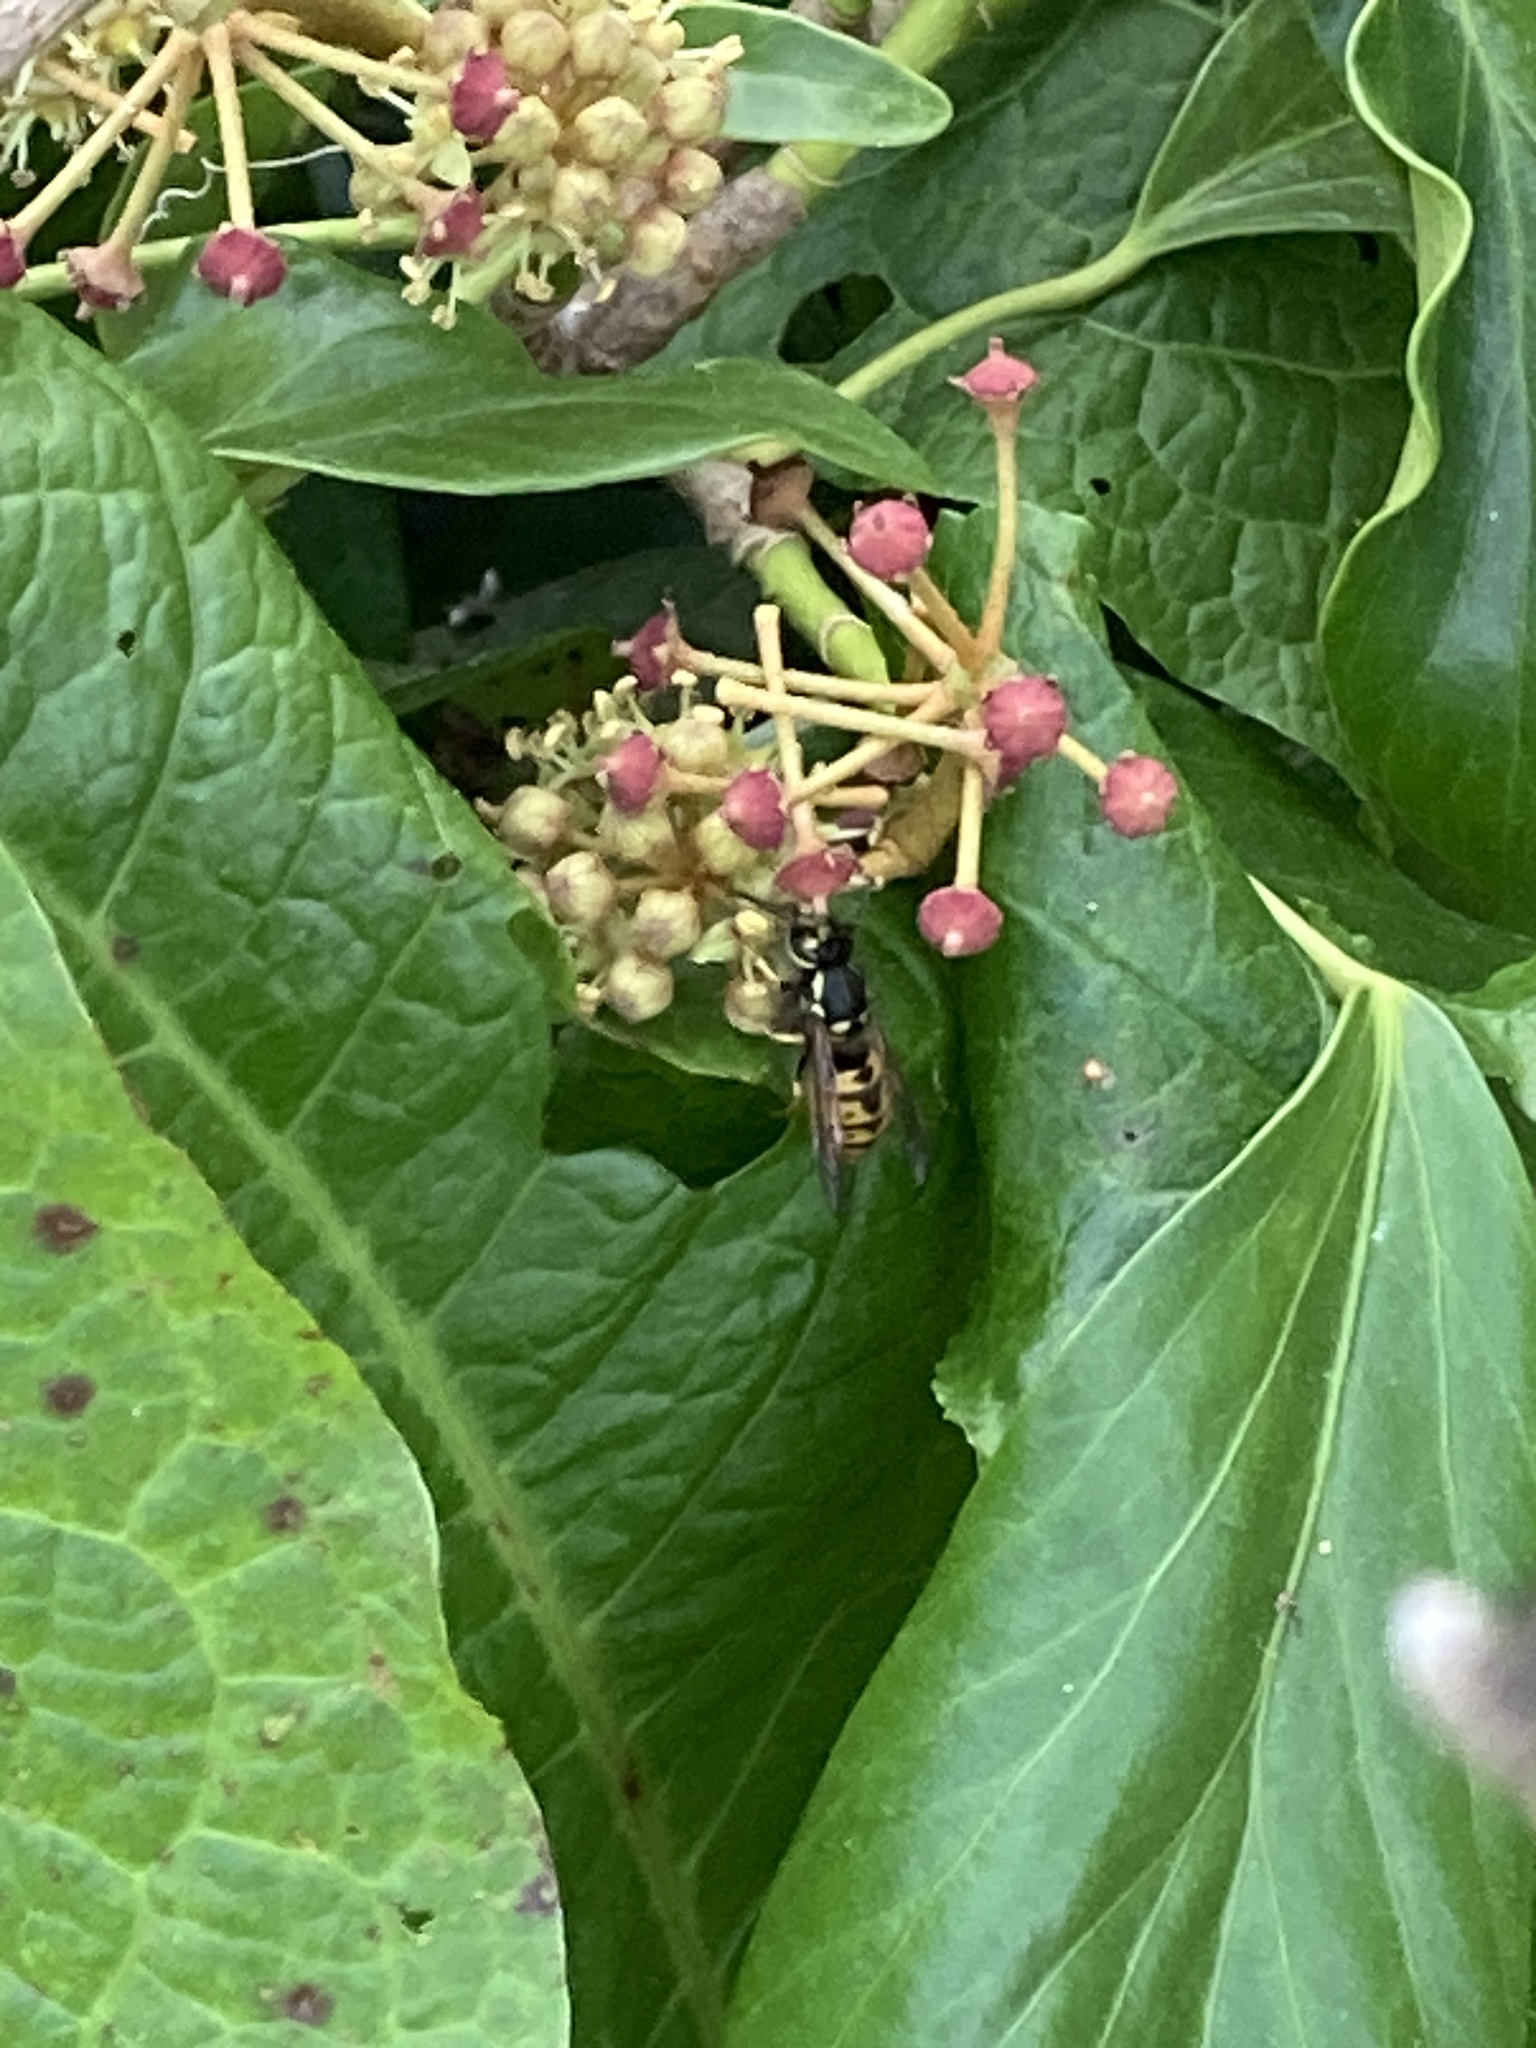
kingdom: Animalia
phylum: Arthropoda
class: Insecta
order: Hymenoptera
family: Vespidae
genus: Vespula
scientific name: Vespula germanica
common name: German wasp
